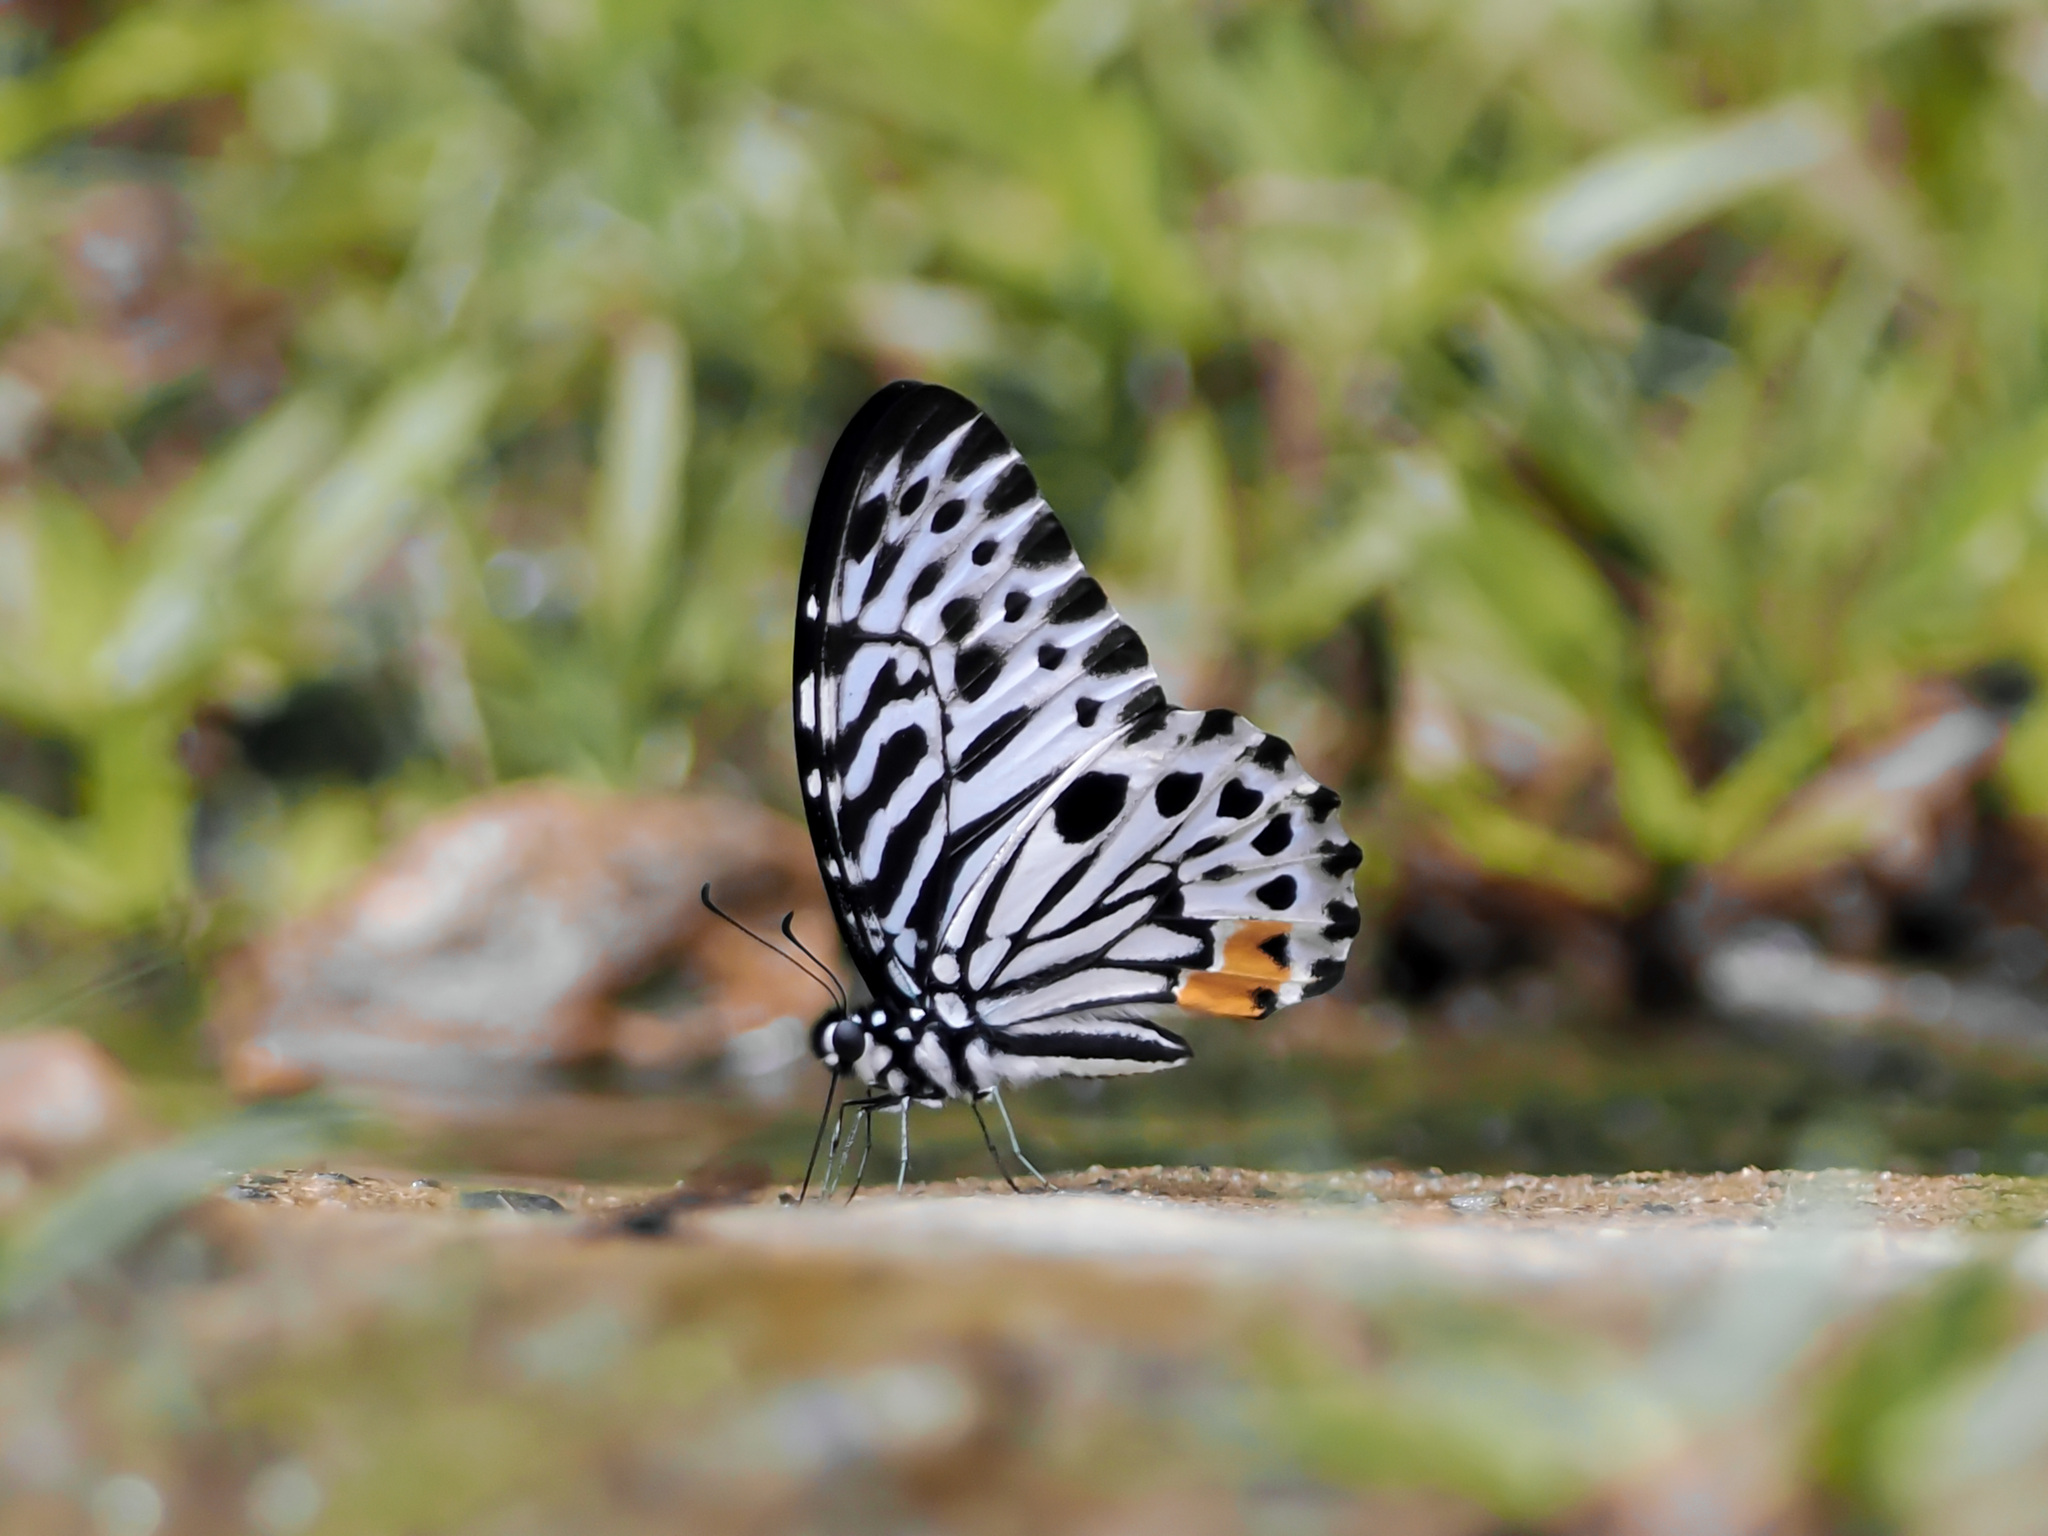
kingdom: Animalia
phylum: Arthropoda
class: Insecta
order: Lepidoptera
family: Papilionidae
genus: Graphium
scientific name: Graphium delesserti
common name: Malayan zebra
